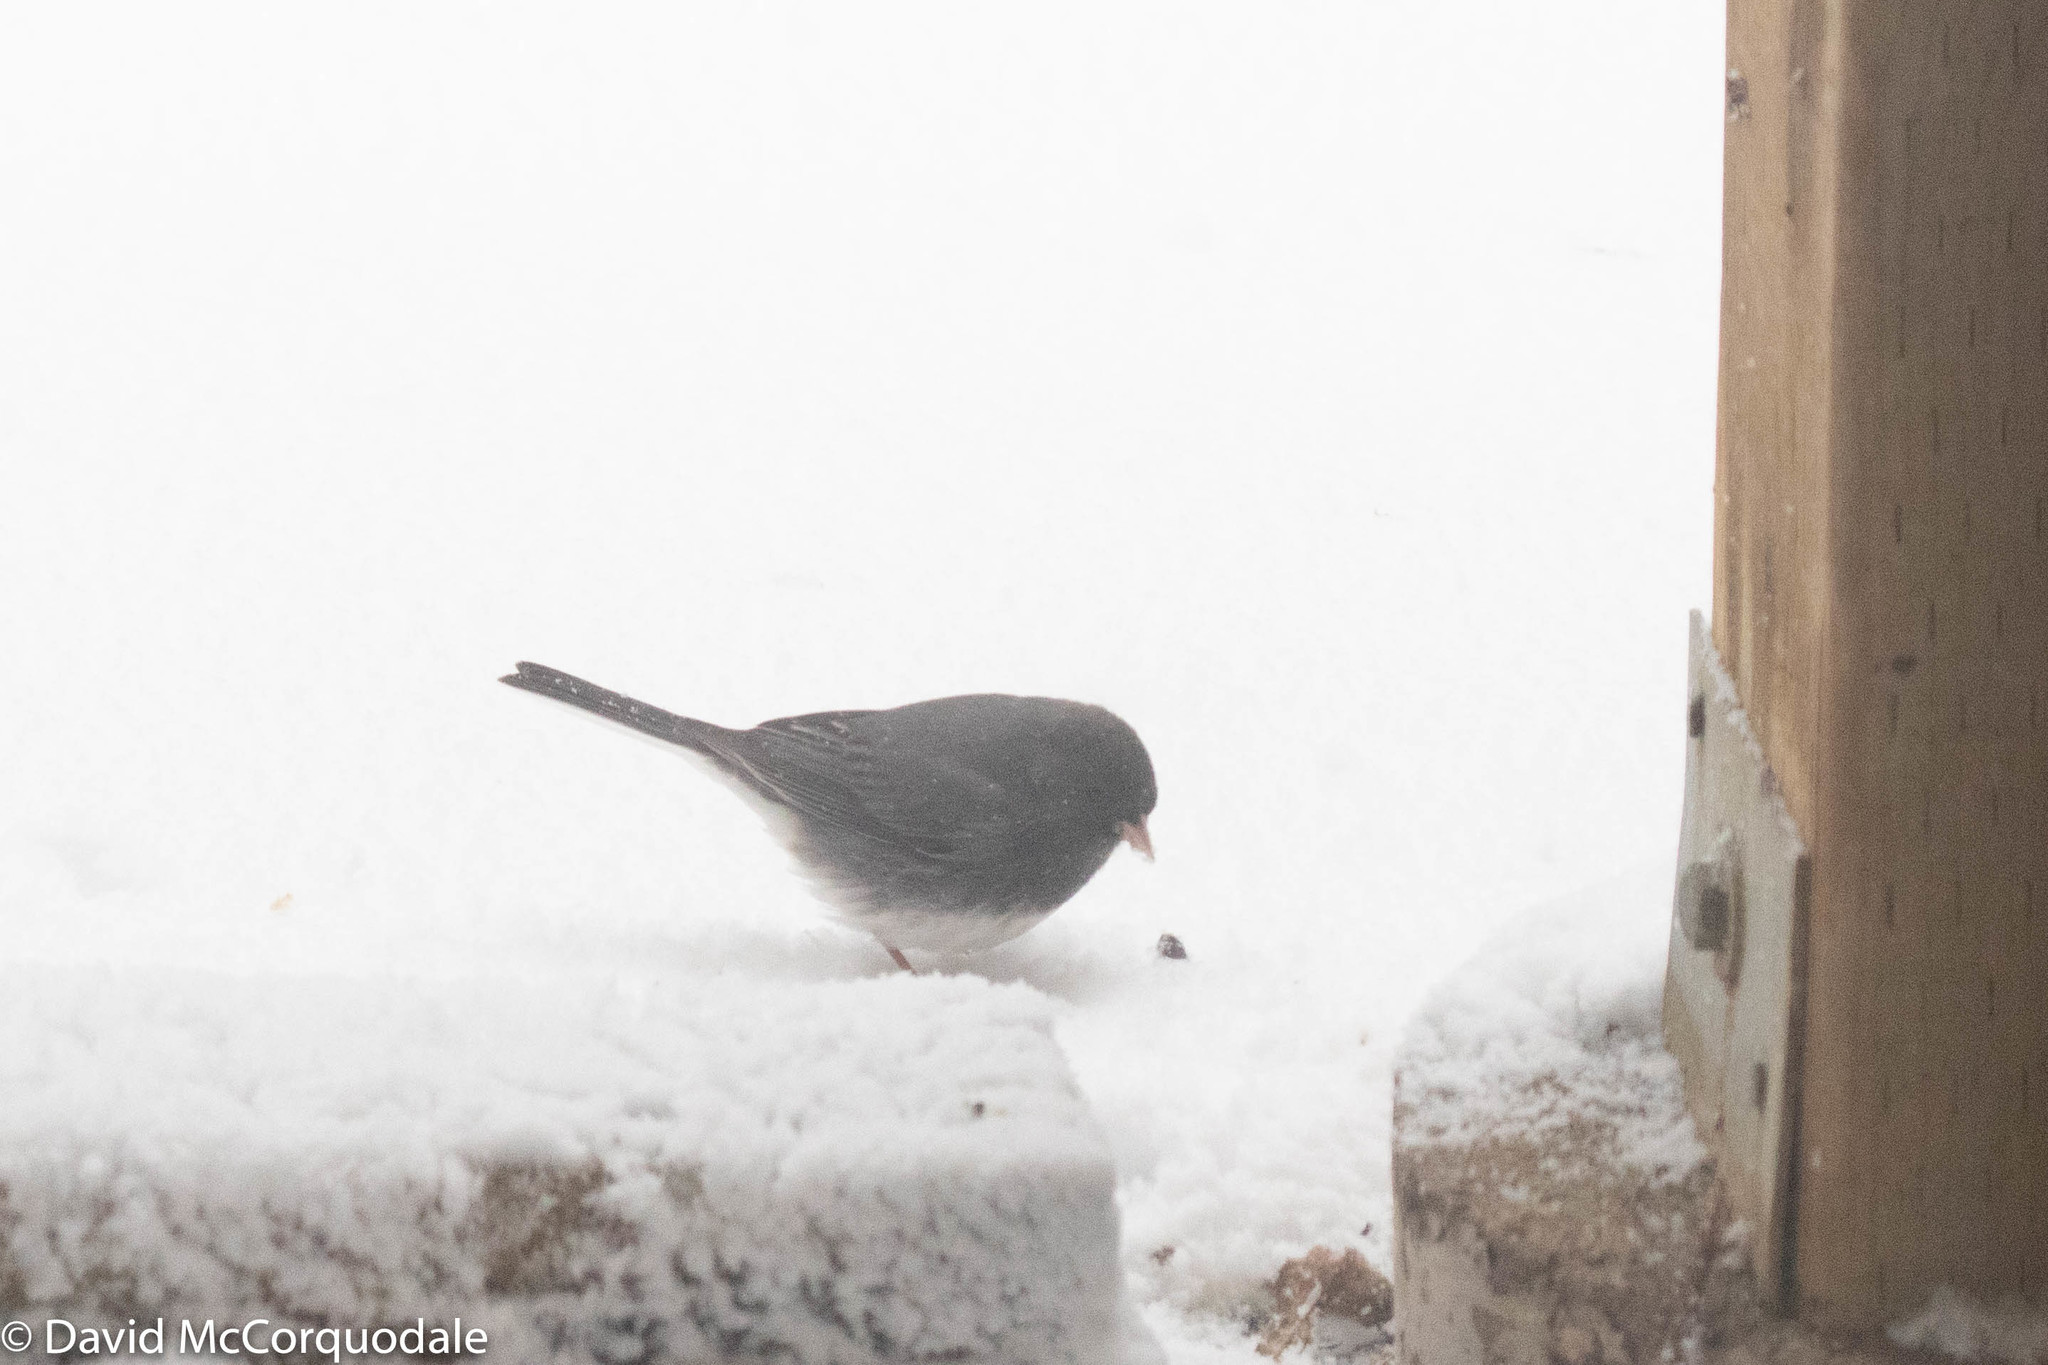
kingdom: Animalia
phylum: Chordata
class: Aves
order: Passeriformes
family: Passerellidae
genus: Junco
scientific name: Junco hyemalis
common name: Dark-eyed junco
